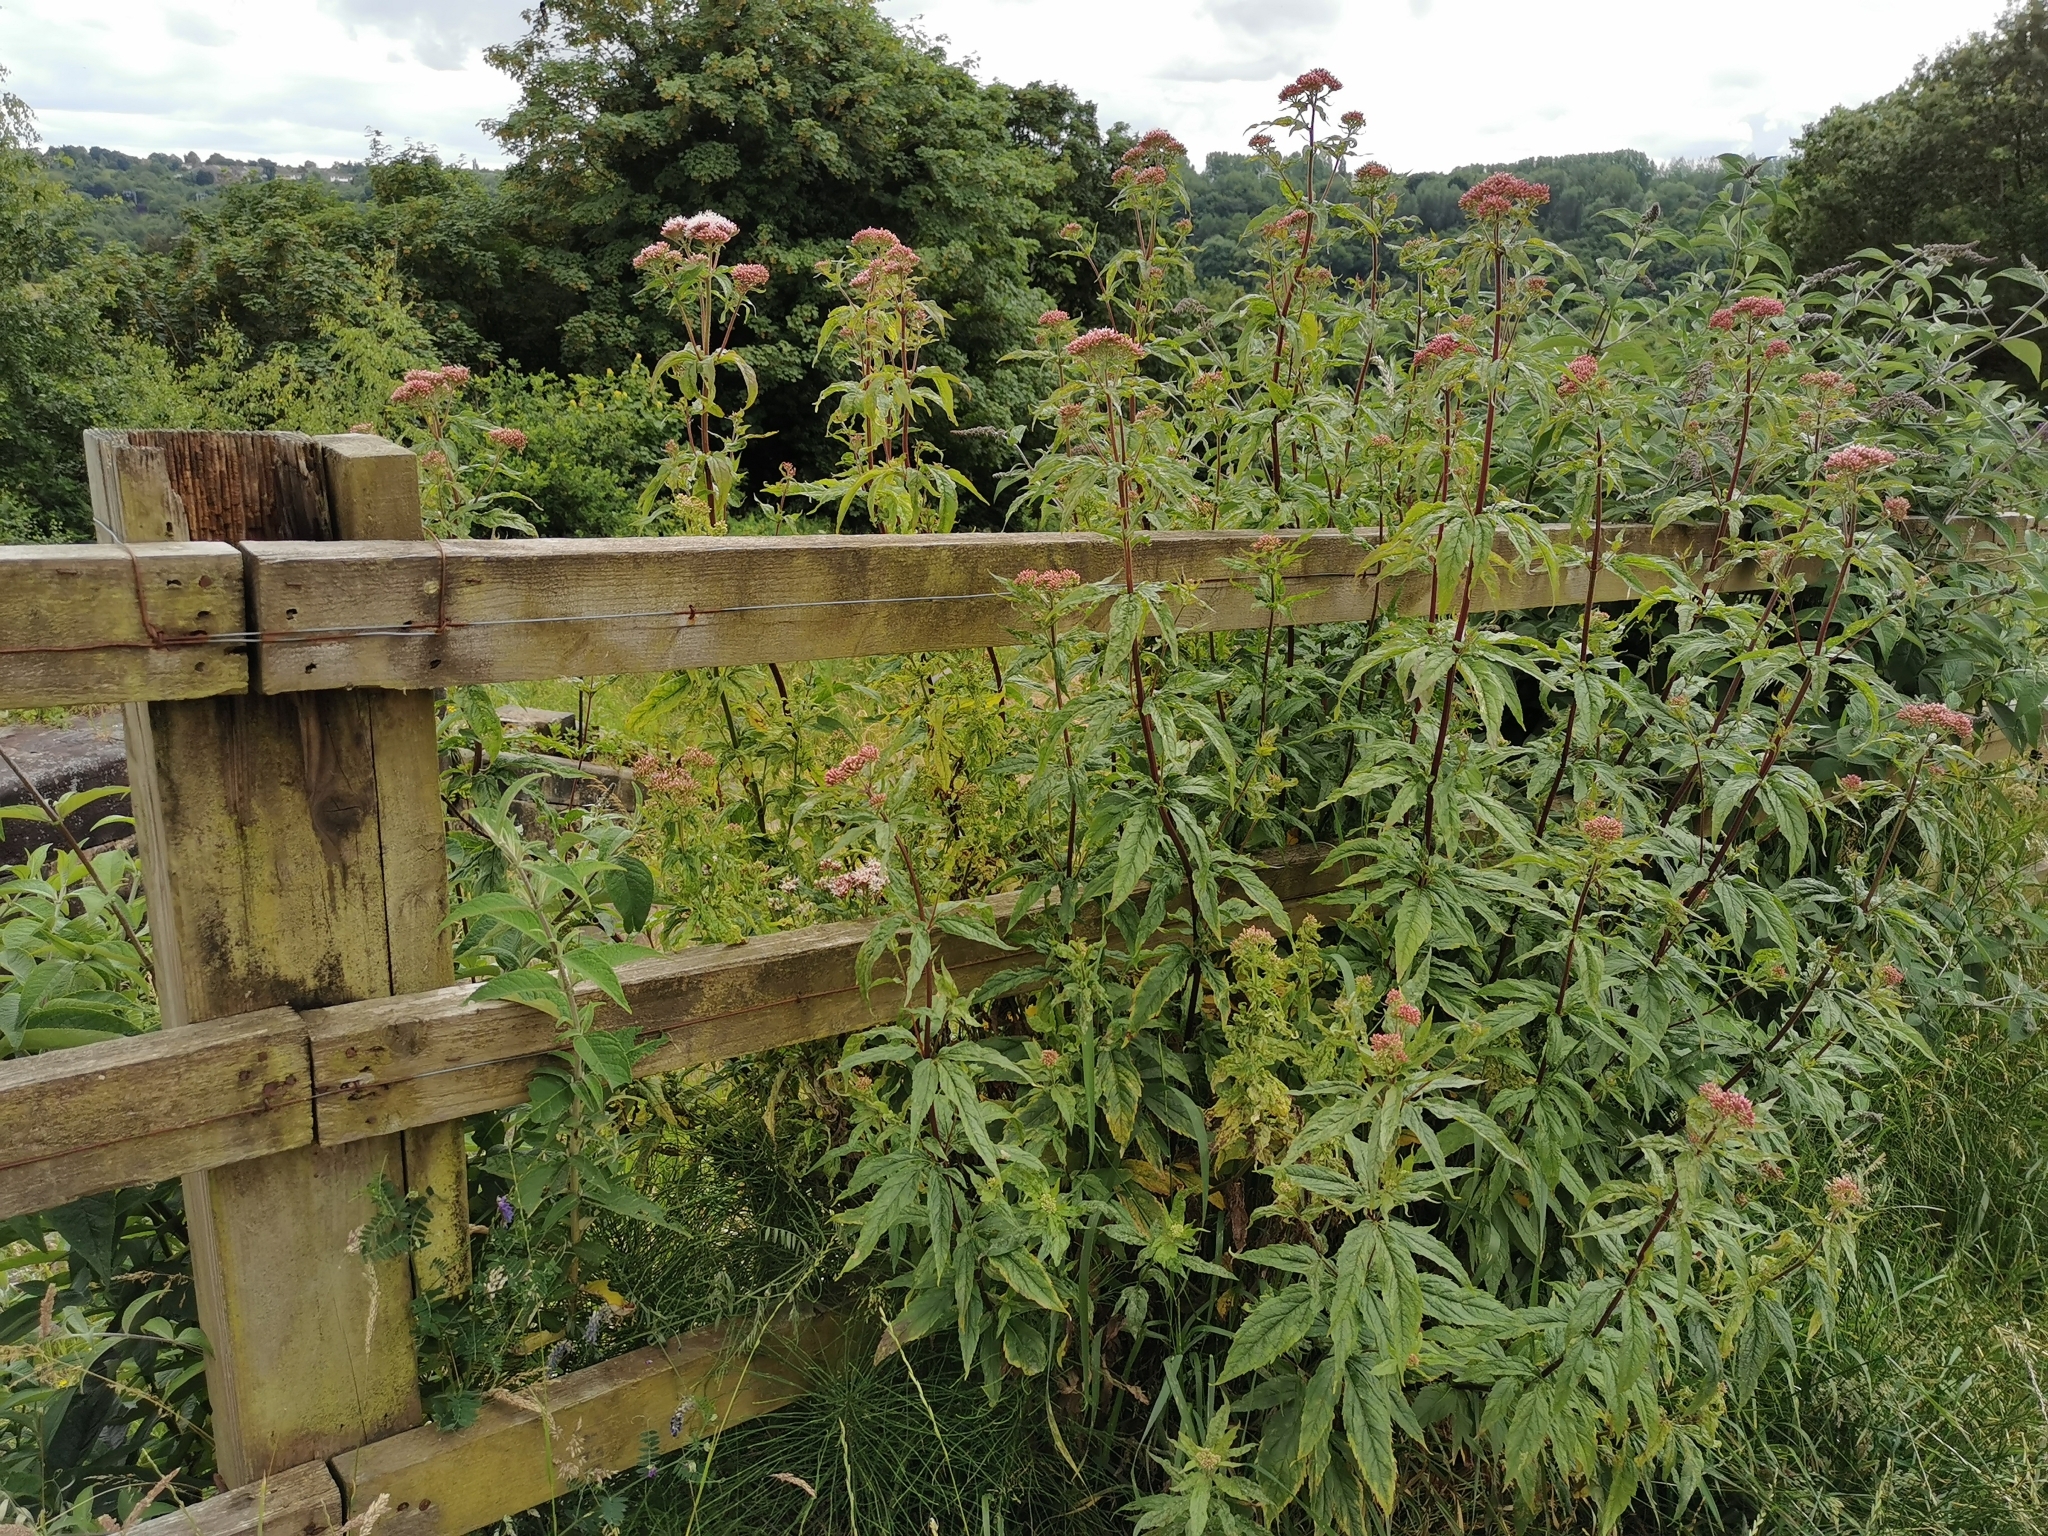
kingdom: Plantae
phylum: Tracheophyta
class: Magnoliopsida
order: Asterales
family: Asteraceae
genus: Eupatorium
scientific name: Eupatorium cannabinum
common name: Hemp-agrimony
